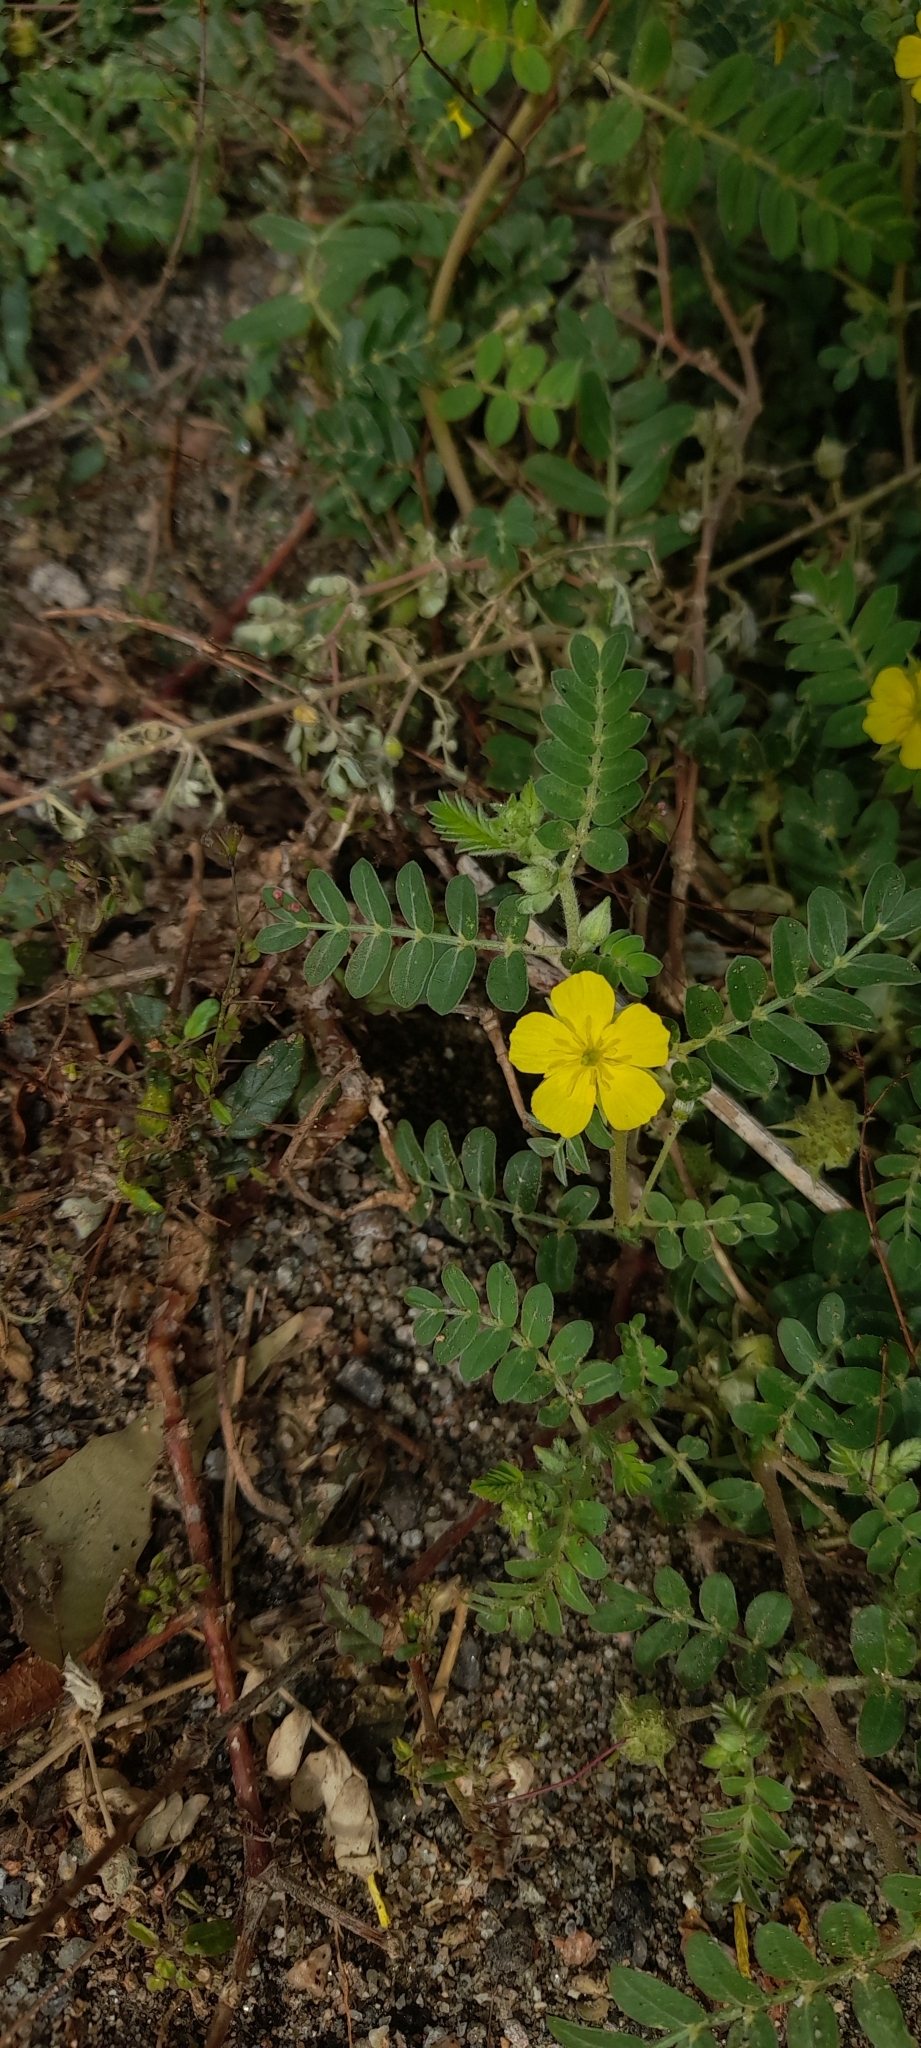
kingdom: Plantae
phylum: Tracheophyta
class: Magnoliopsida
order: Zygophyllales
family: Zygophyllaceae
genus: Tribulus
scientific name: Tribulus terrestris
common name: Puncturevine
